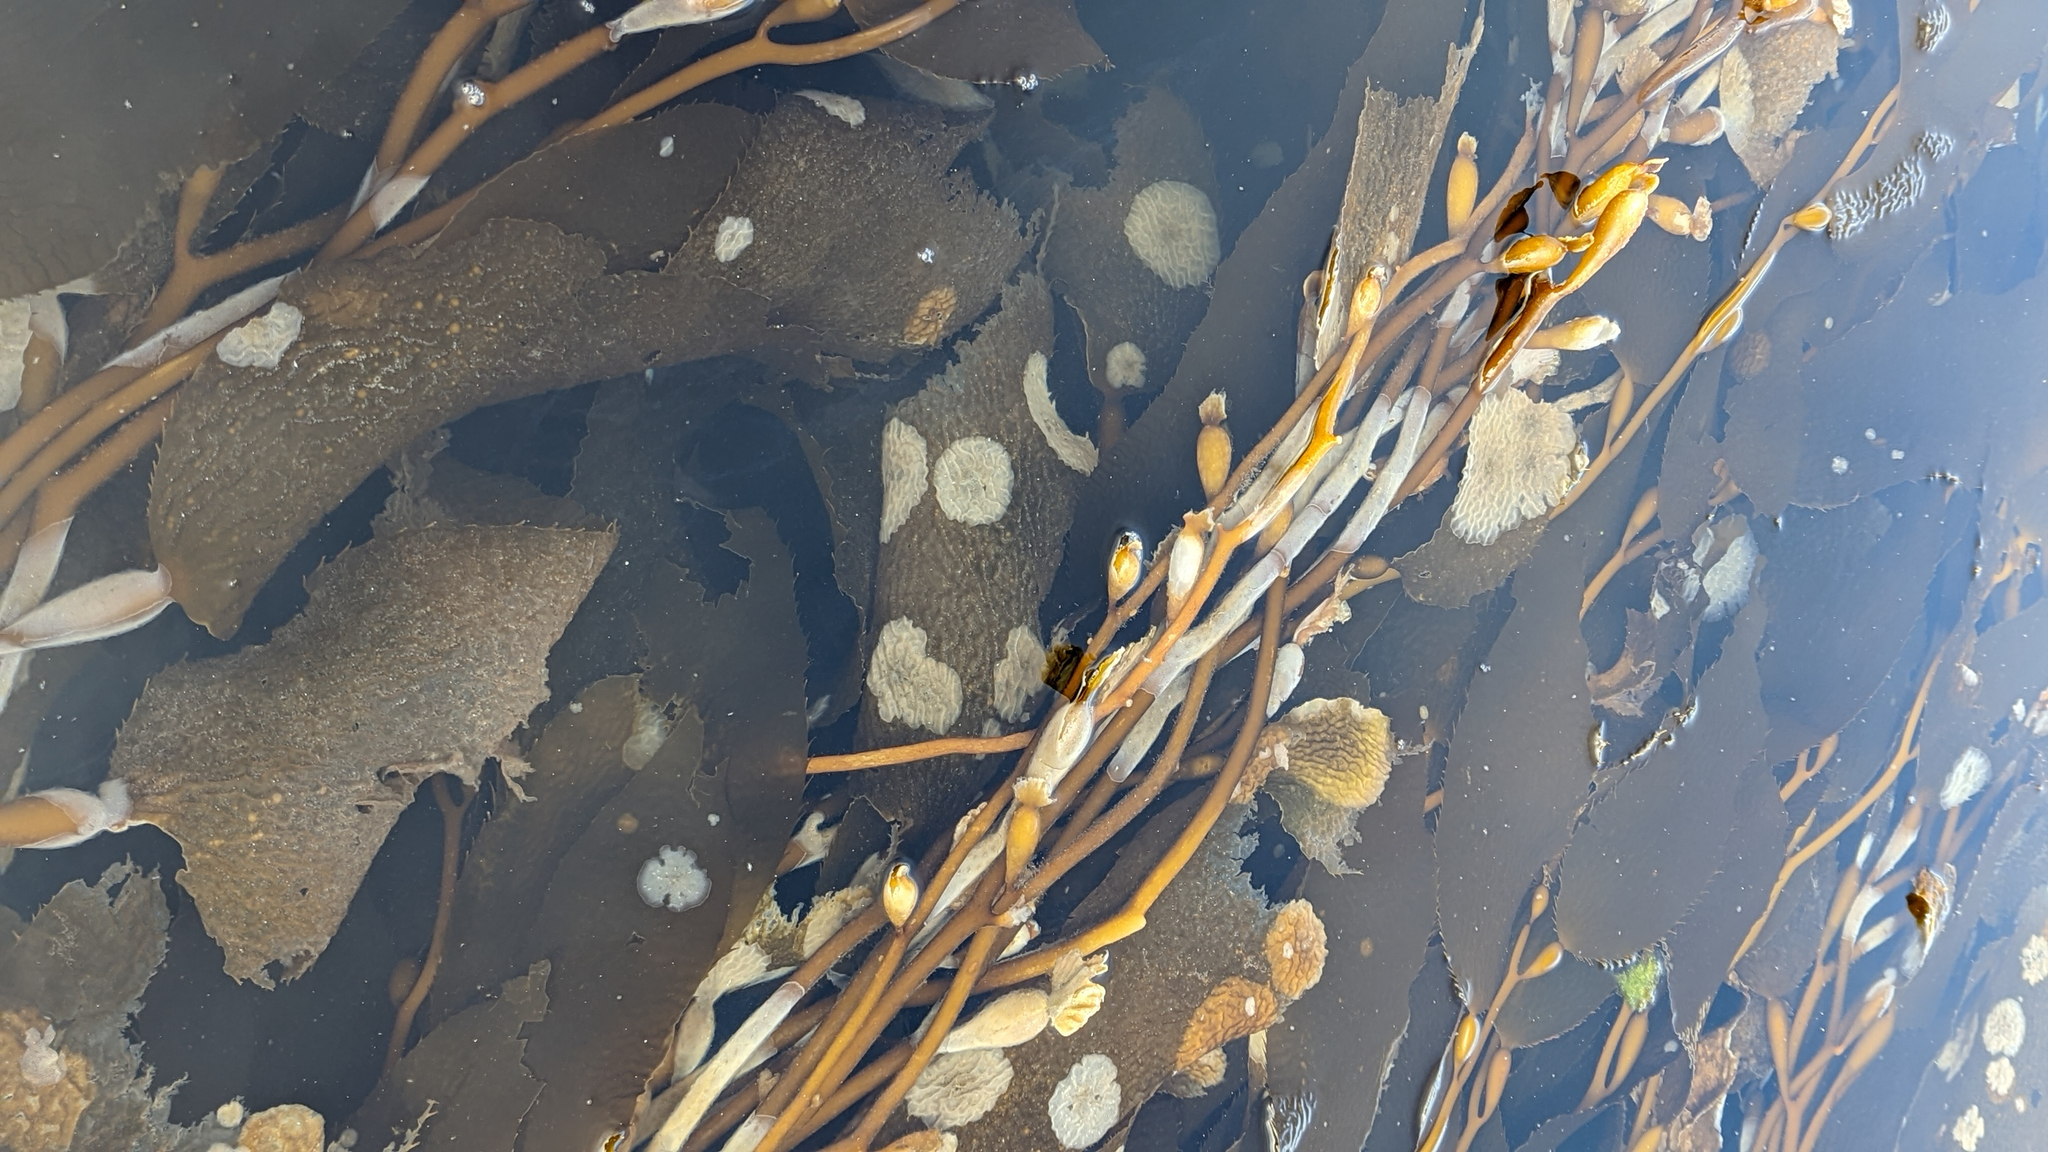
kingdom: Chromista
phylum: Ochrophyta
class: Phaeophyceae
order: Laminariales
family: Laminariaceae
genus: Macrocystis
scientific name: Macrocystis pyrifera
